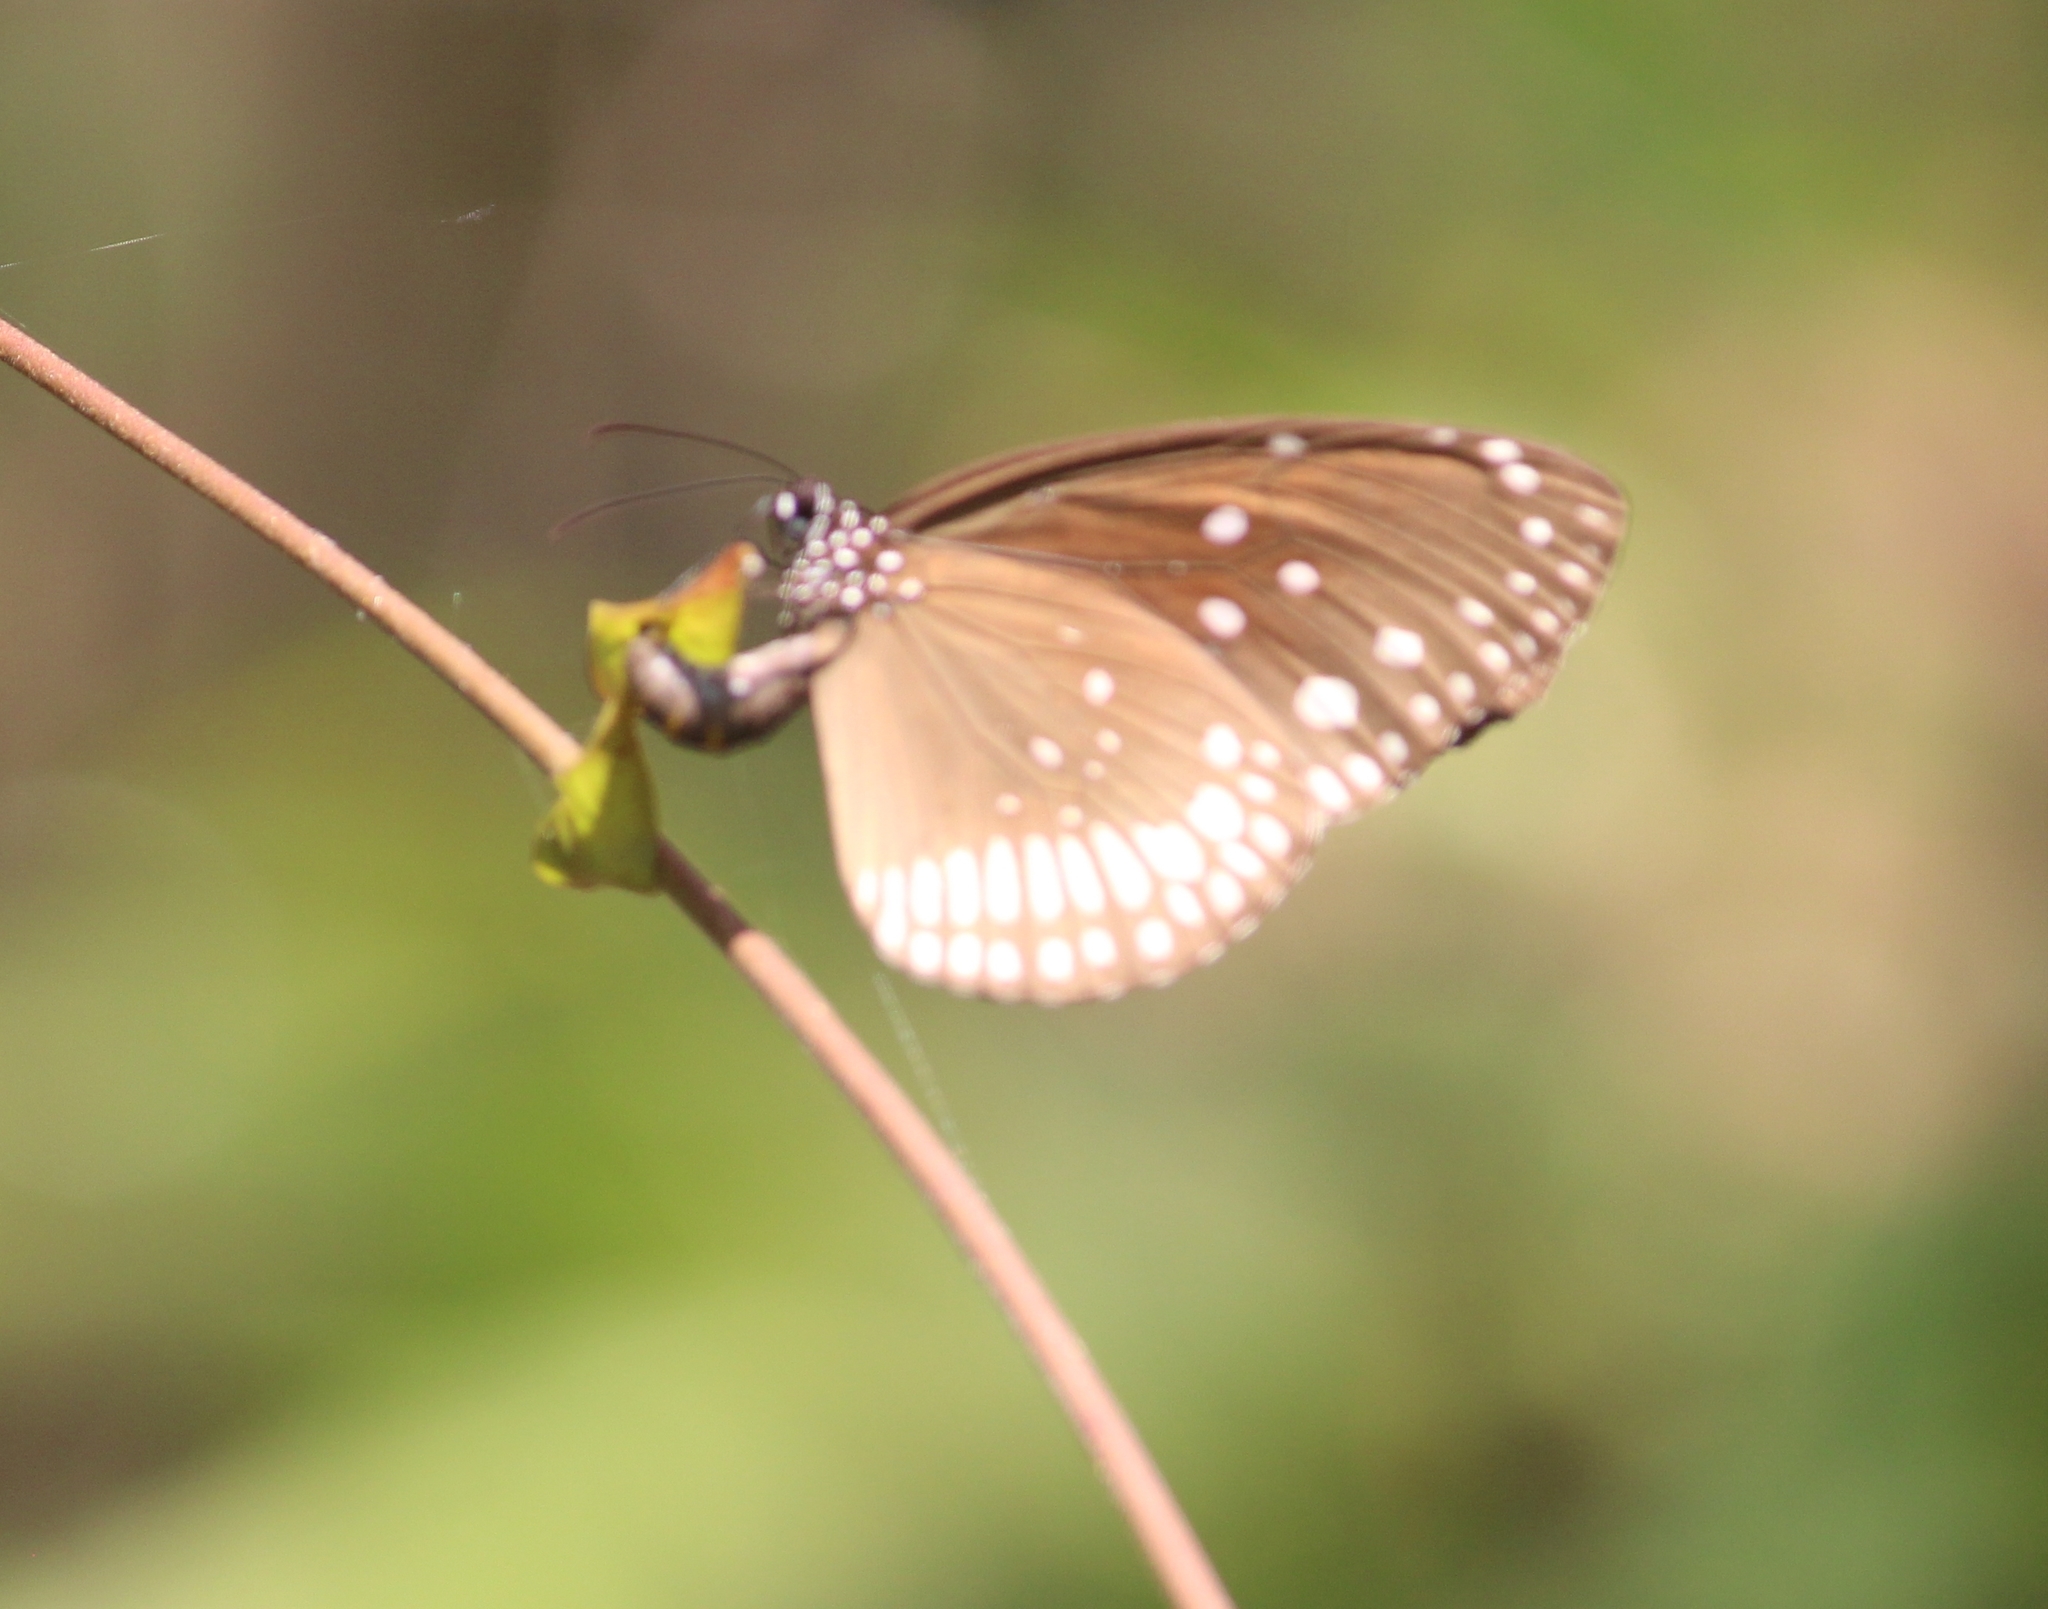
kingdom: Animalia
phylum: Arthropoda
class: Insecta
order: Lepidoptera
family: Nymphalidae
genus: Euploea
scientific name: Euploea core
